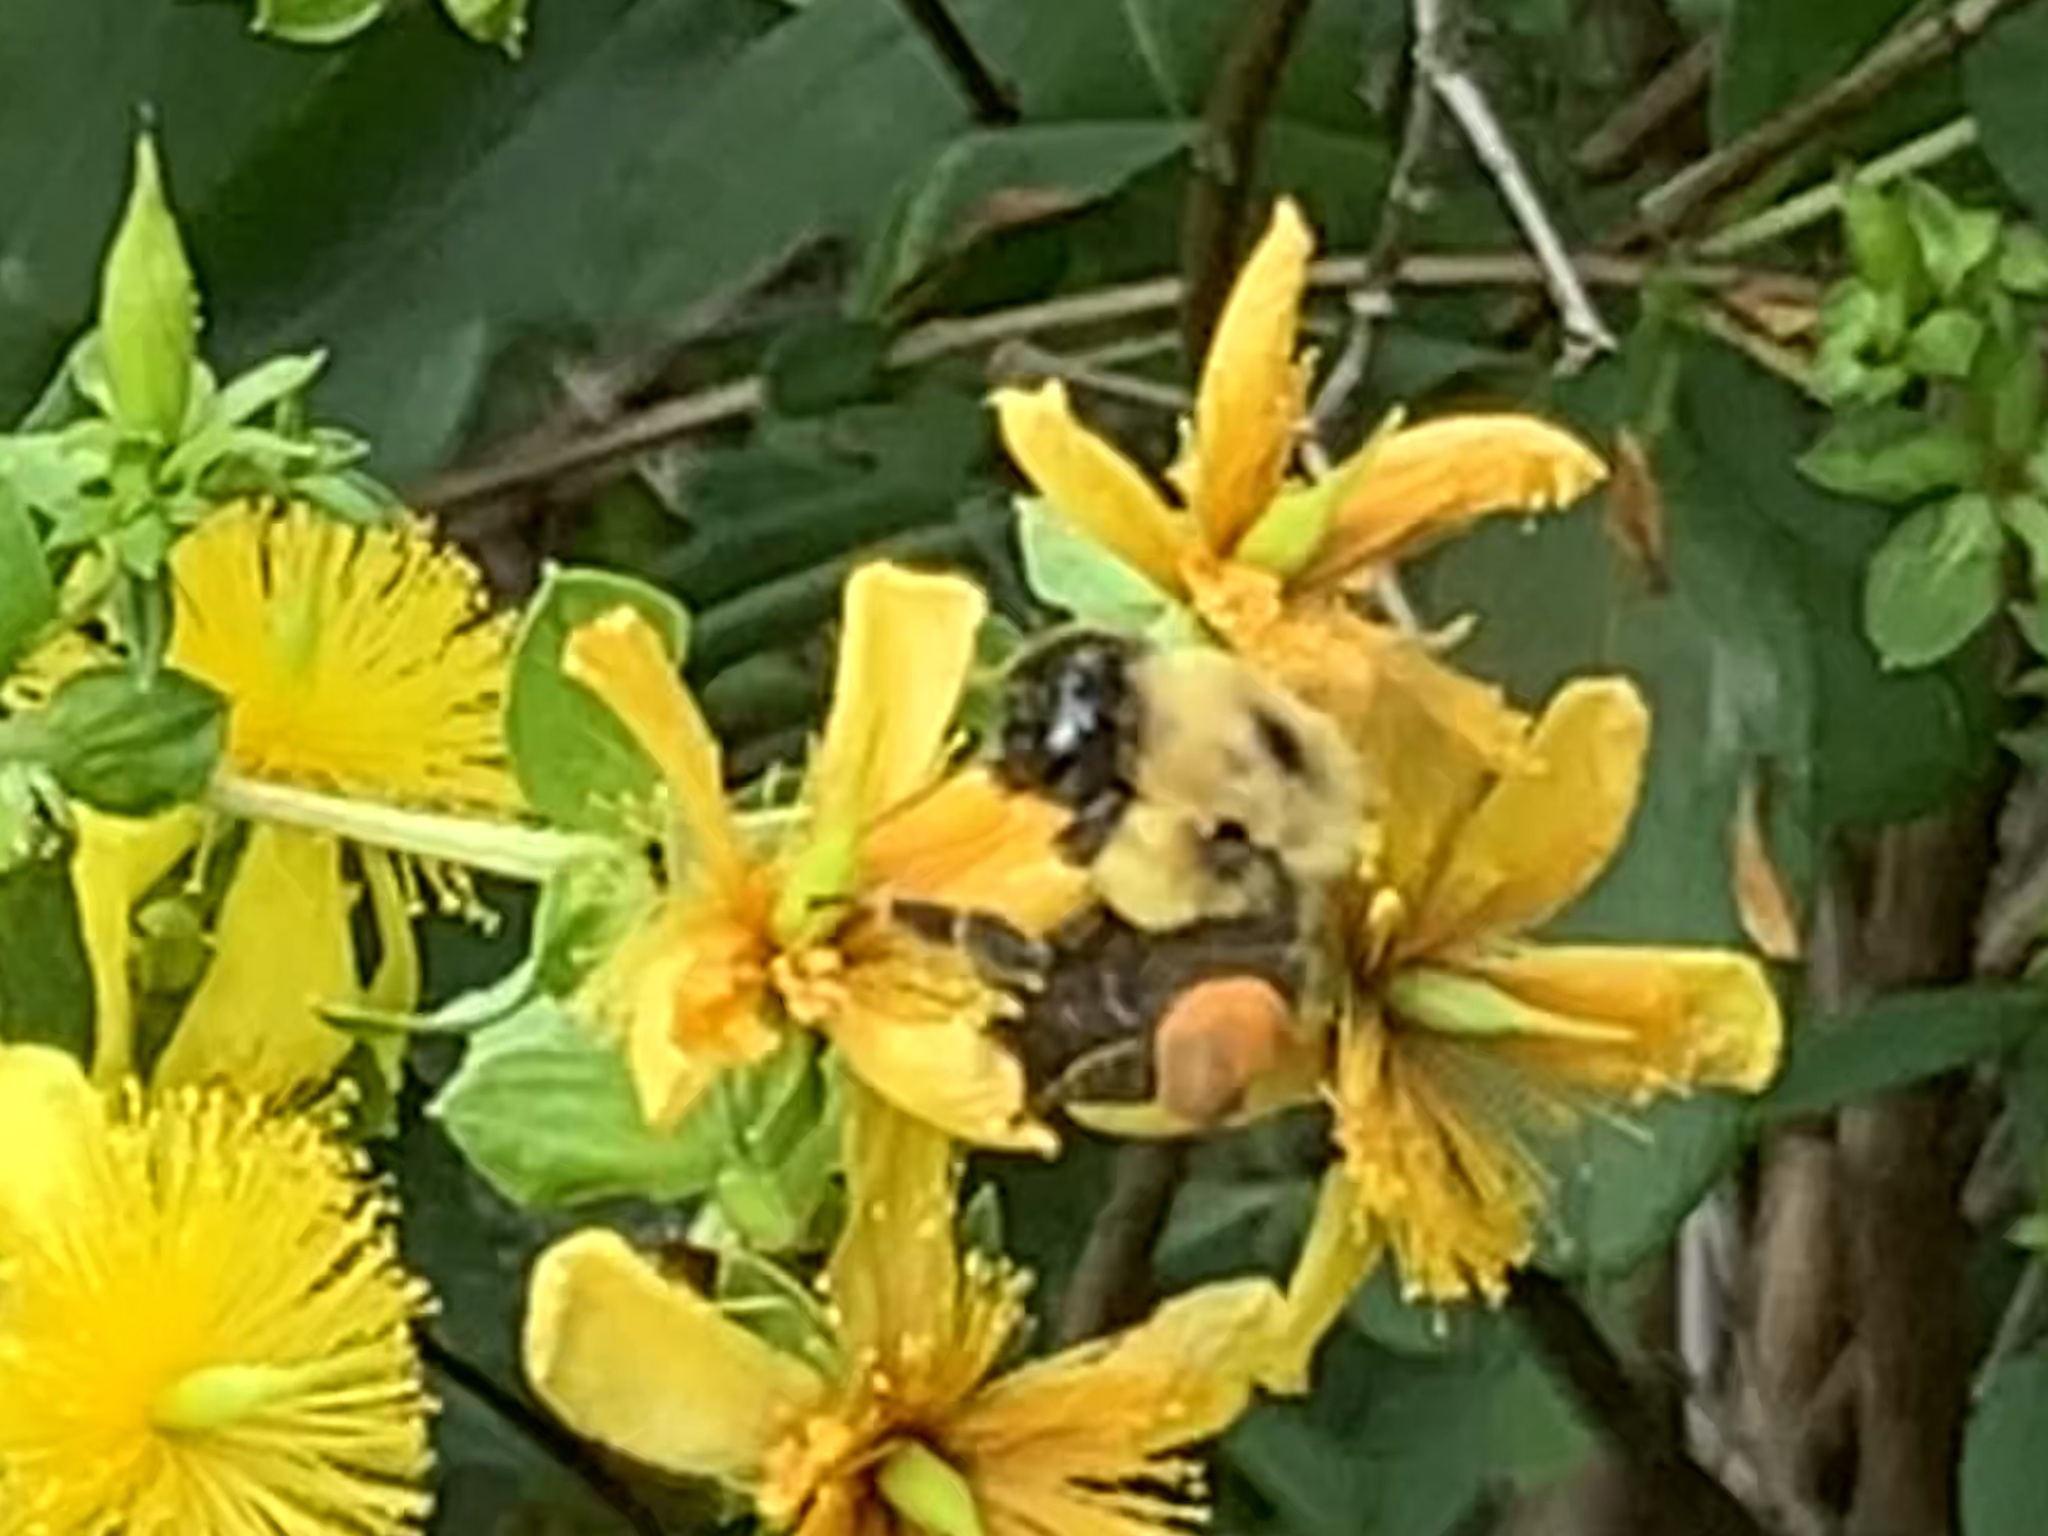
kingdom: Animalia
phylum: Arthropoda
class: Insecta
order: Hymenoptera
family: Apidae
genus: Bombus
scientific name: Bombus griseocollis
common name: Brown-belted bumble bee
